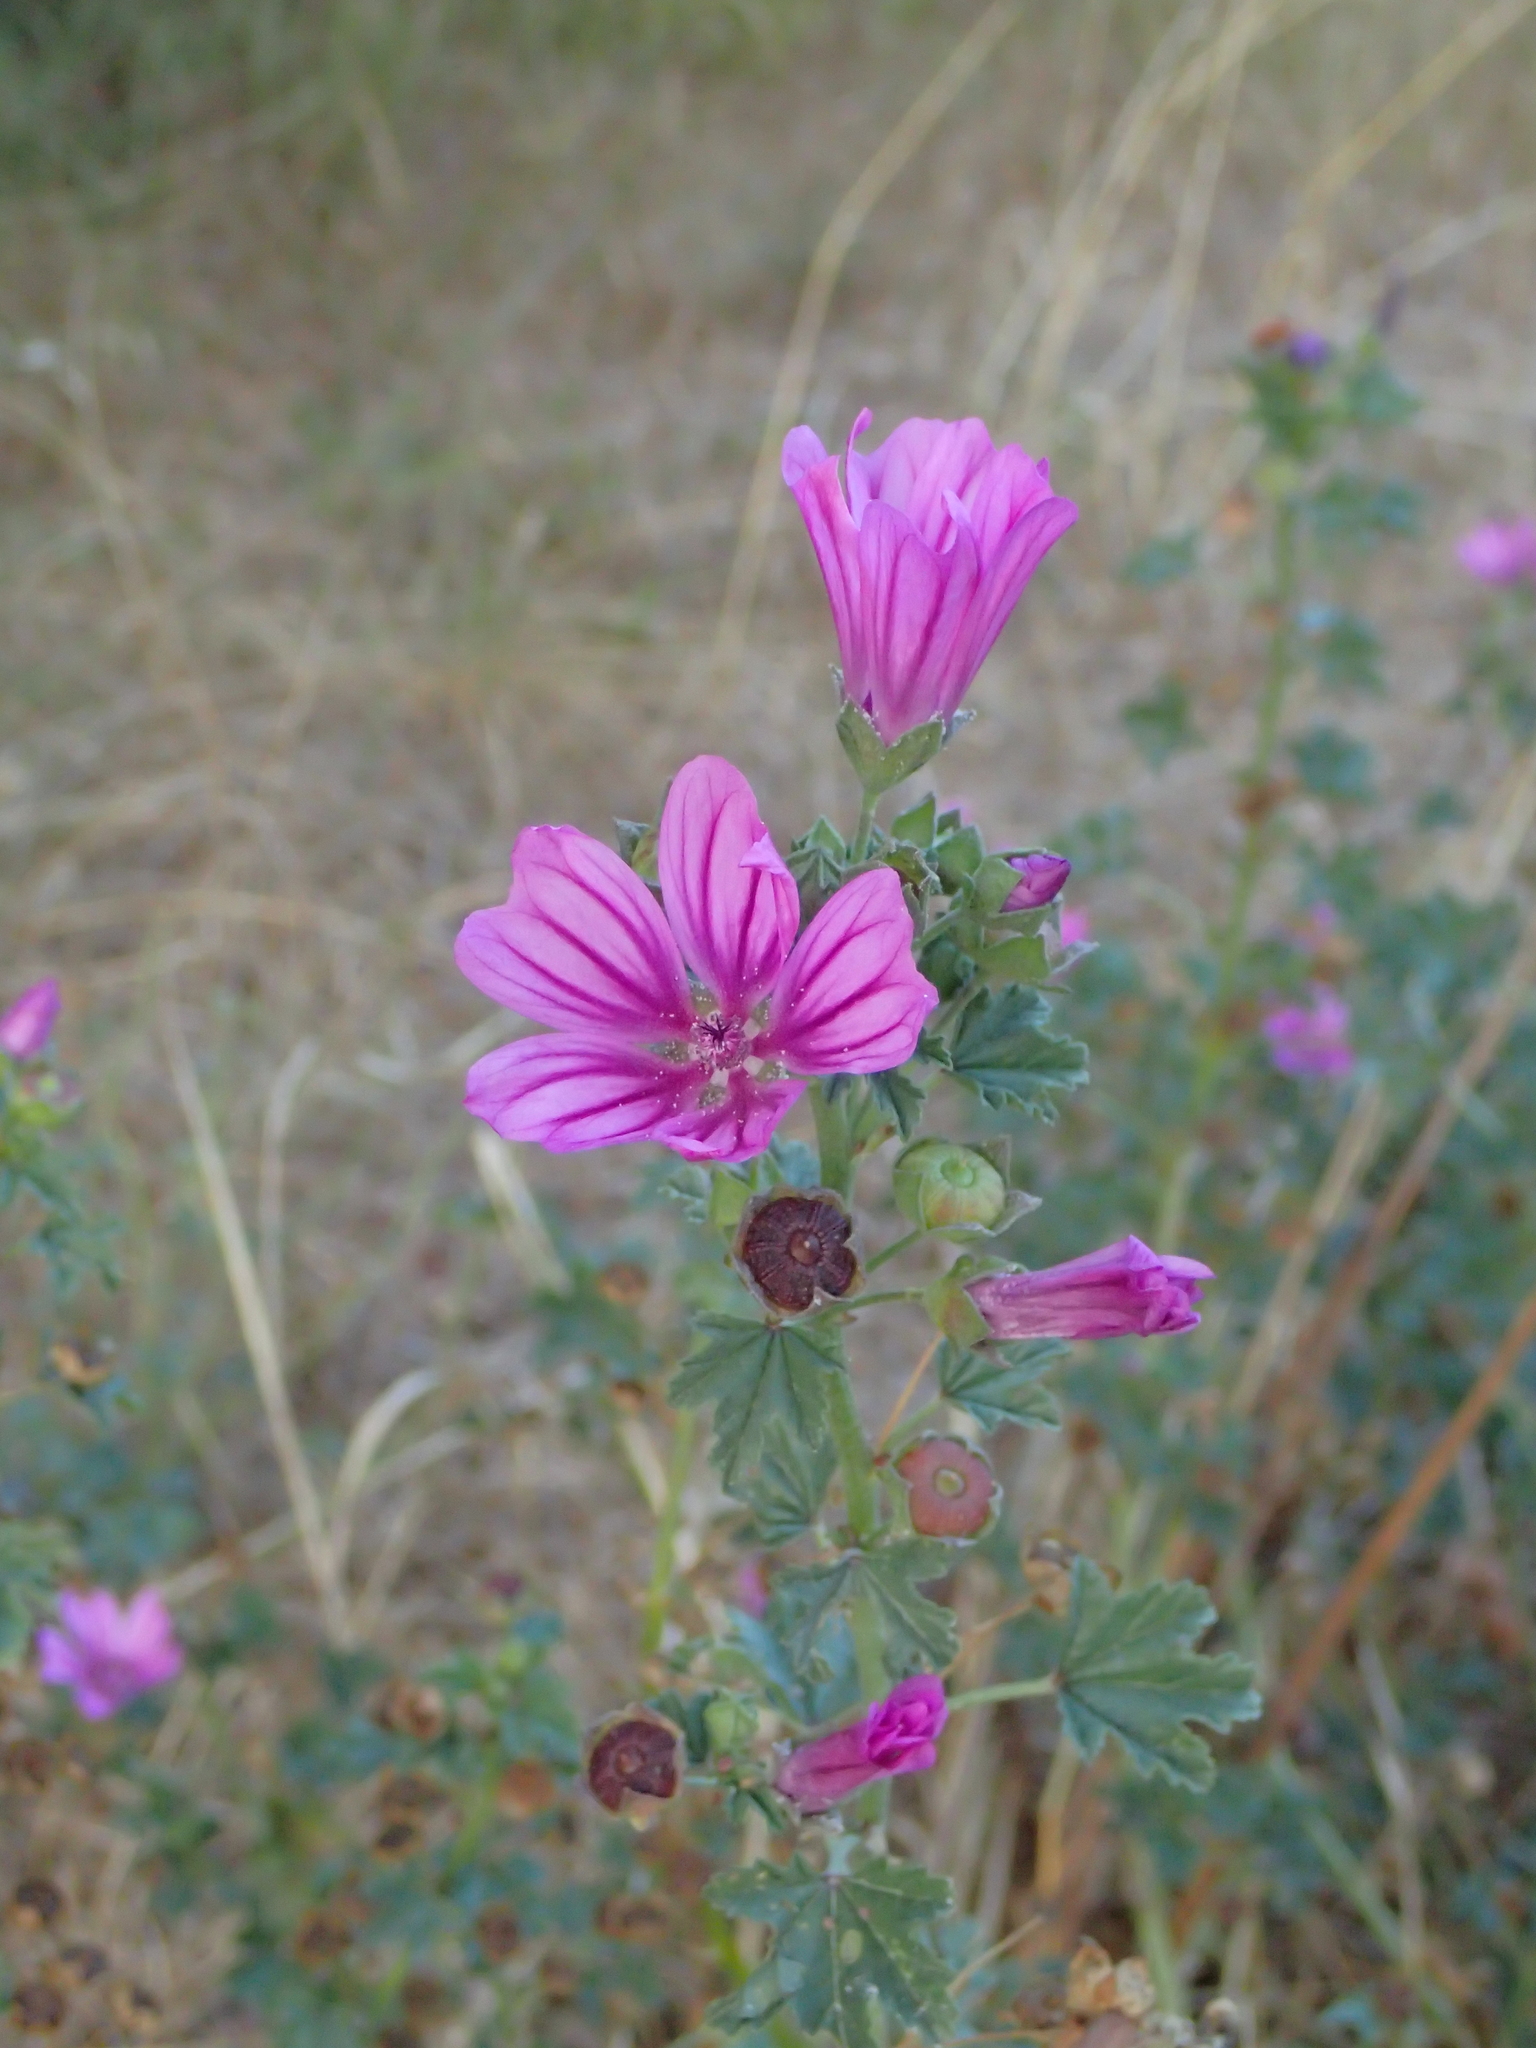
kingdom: Plantae
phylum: Tracheophyta
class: Magnoliopsida
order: Malvales
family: Malvaceae
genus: Malva
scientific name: Malva sylvestris
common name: Common mallow
